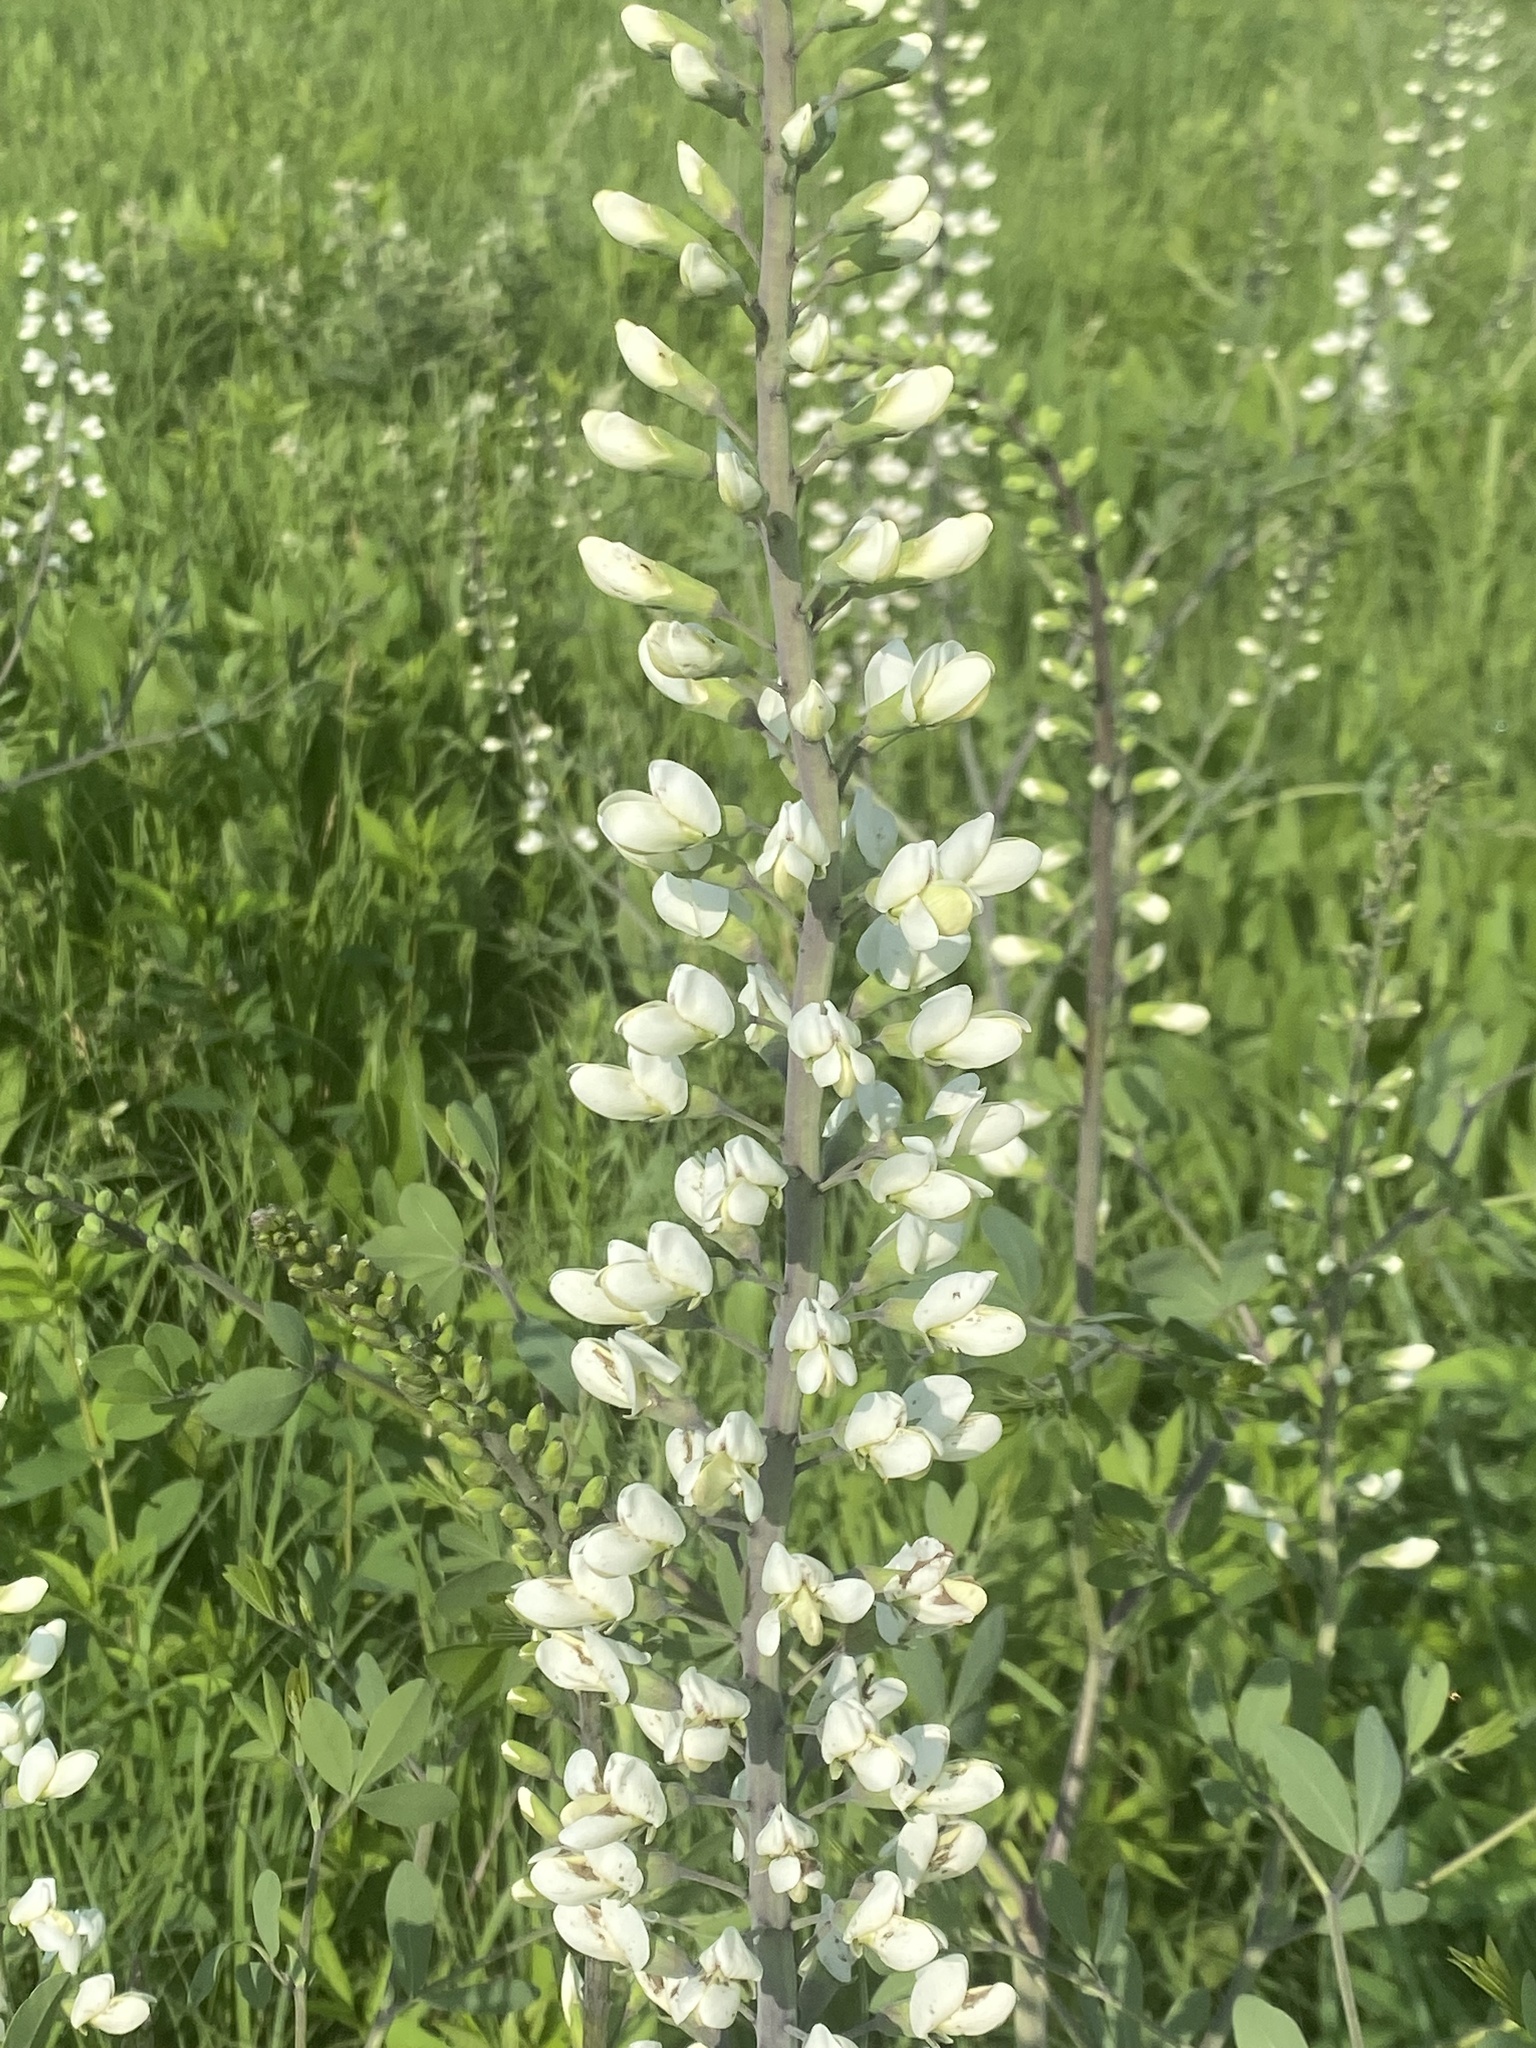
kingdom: Plantae
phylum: Tracheophyta
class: Magnoliopsida
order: Fabales
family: Fabaceae
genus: Baptisia
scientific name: Baptisia alba
